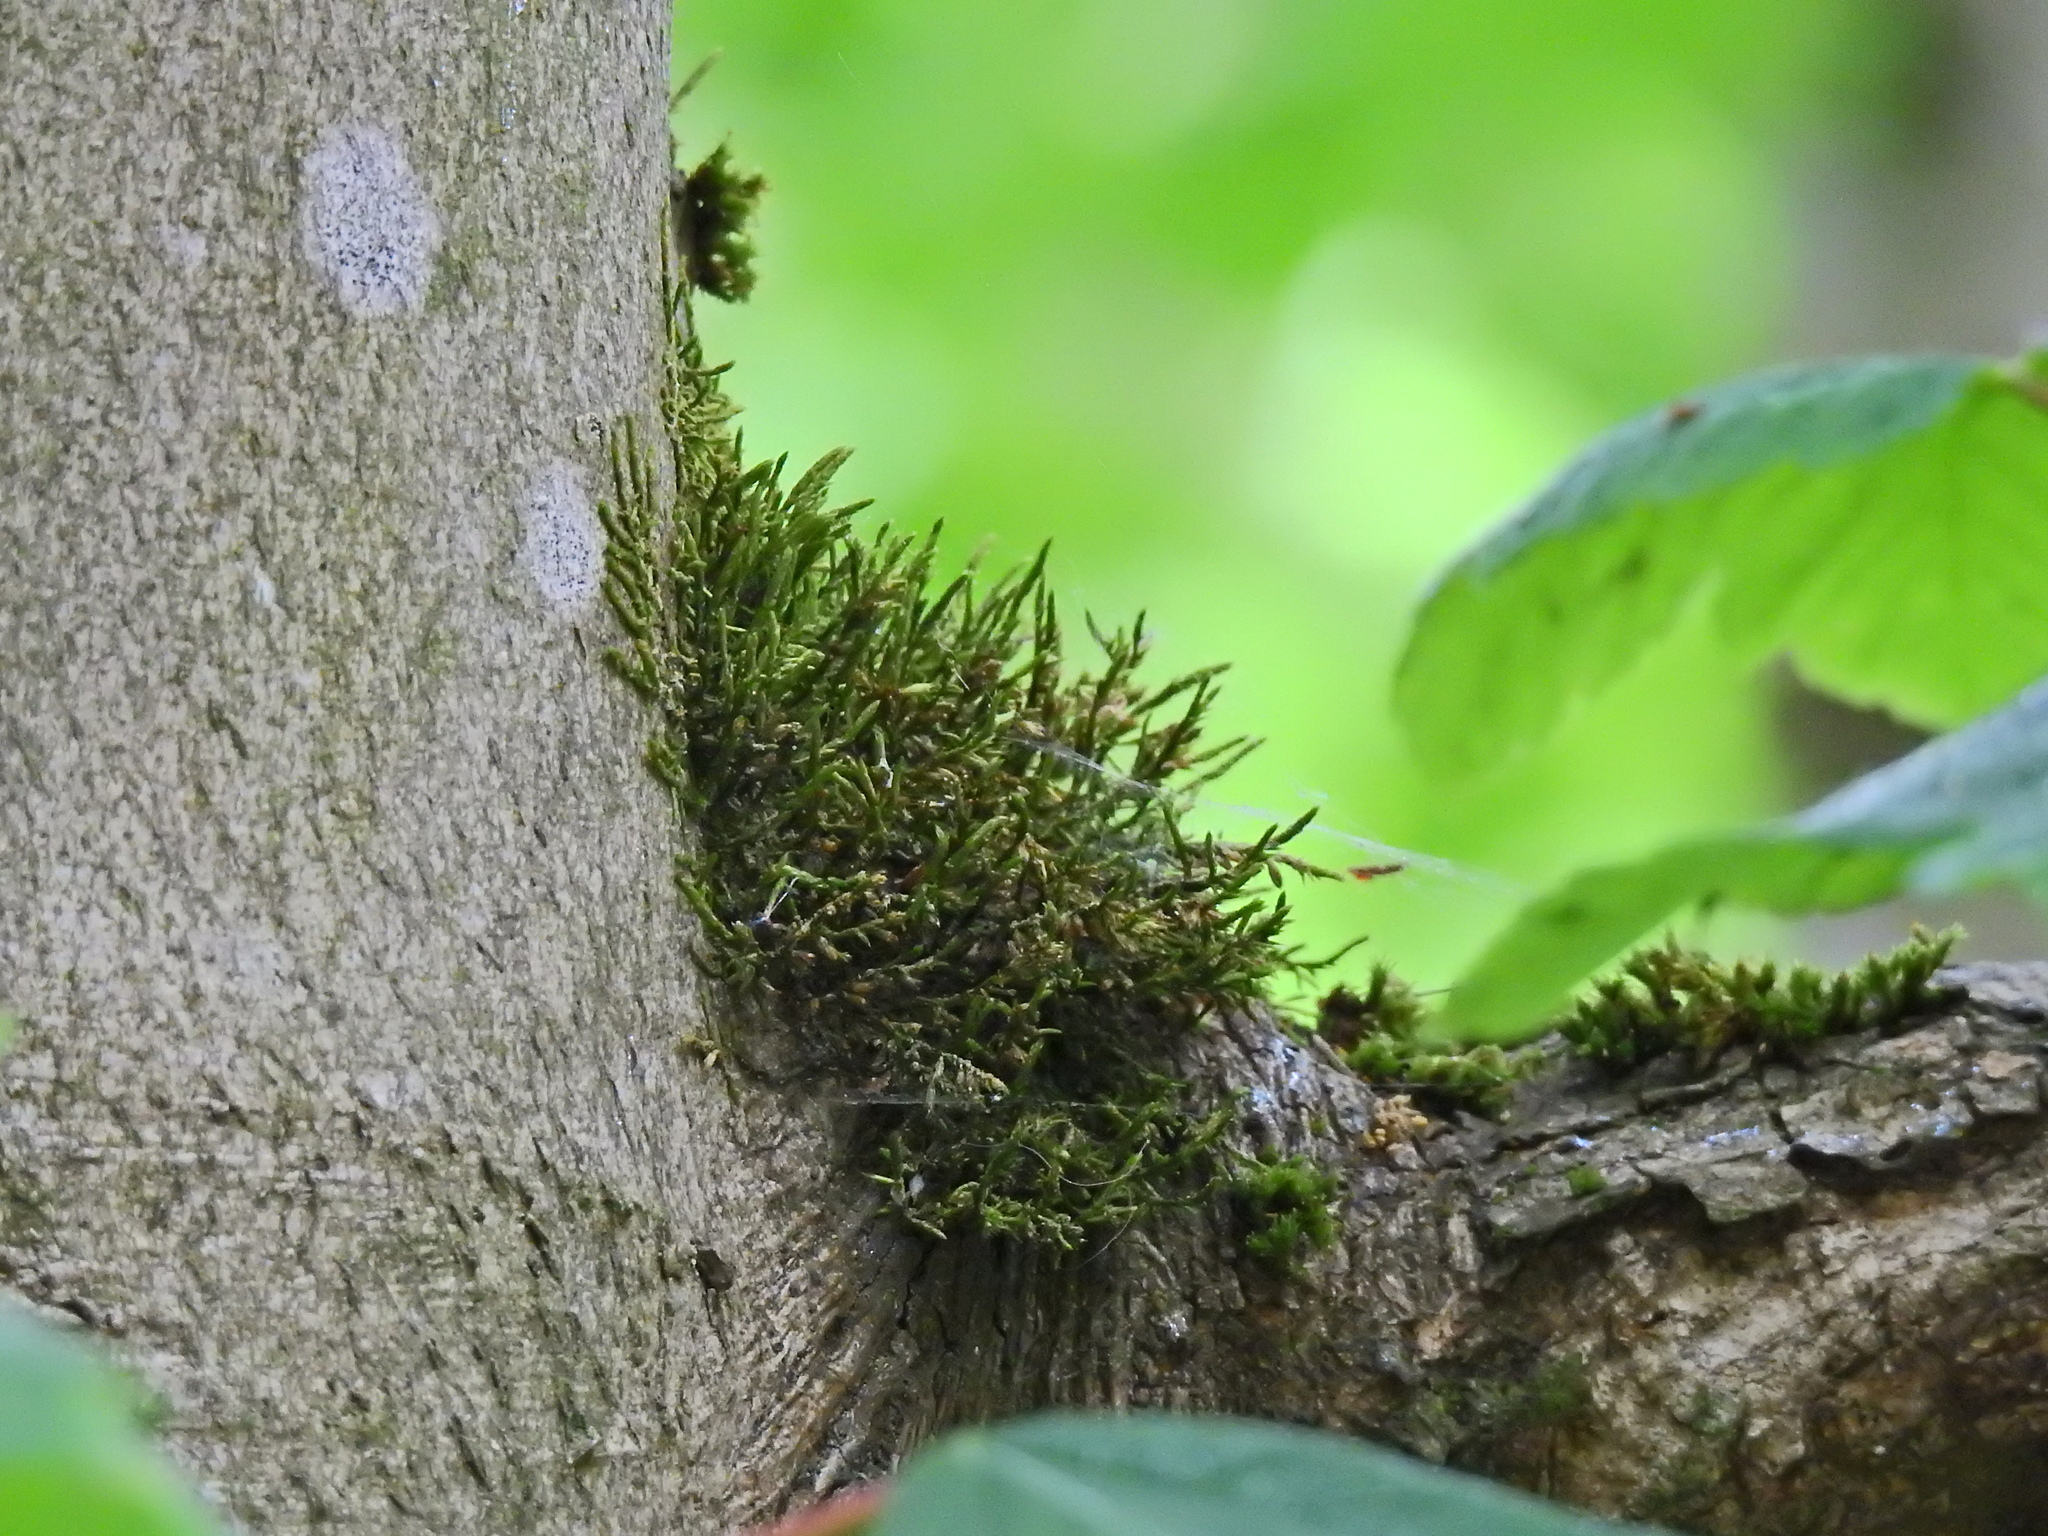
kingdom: Plantae
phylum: Bryophyta
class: Bryopsida
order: Hypnales
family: Cryphaeaceae
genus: Cryphaea
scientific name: Cryphaea heteromalla
